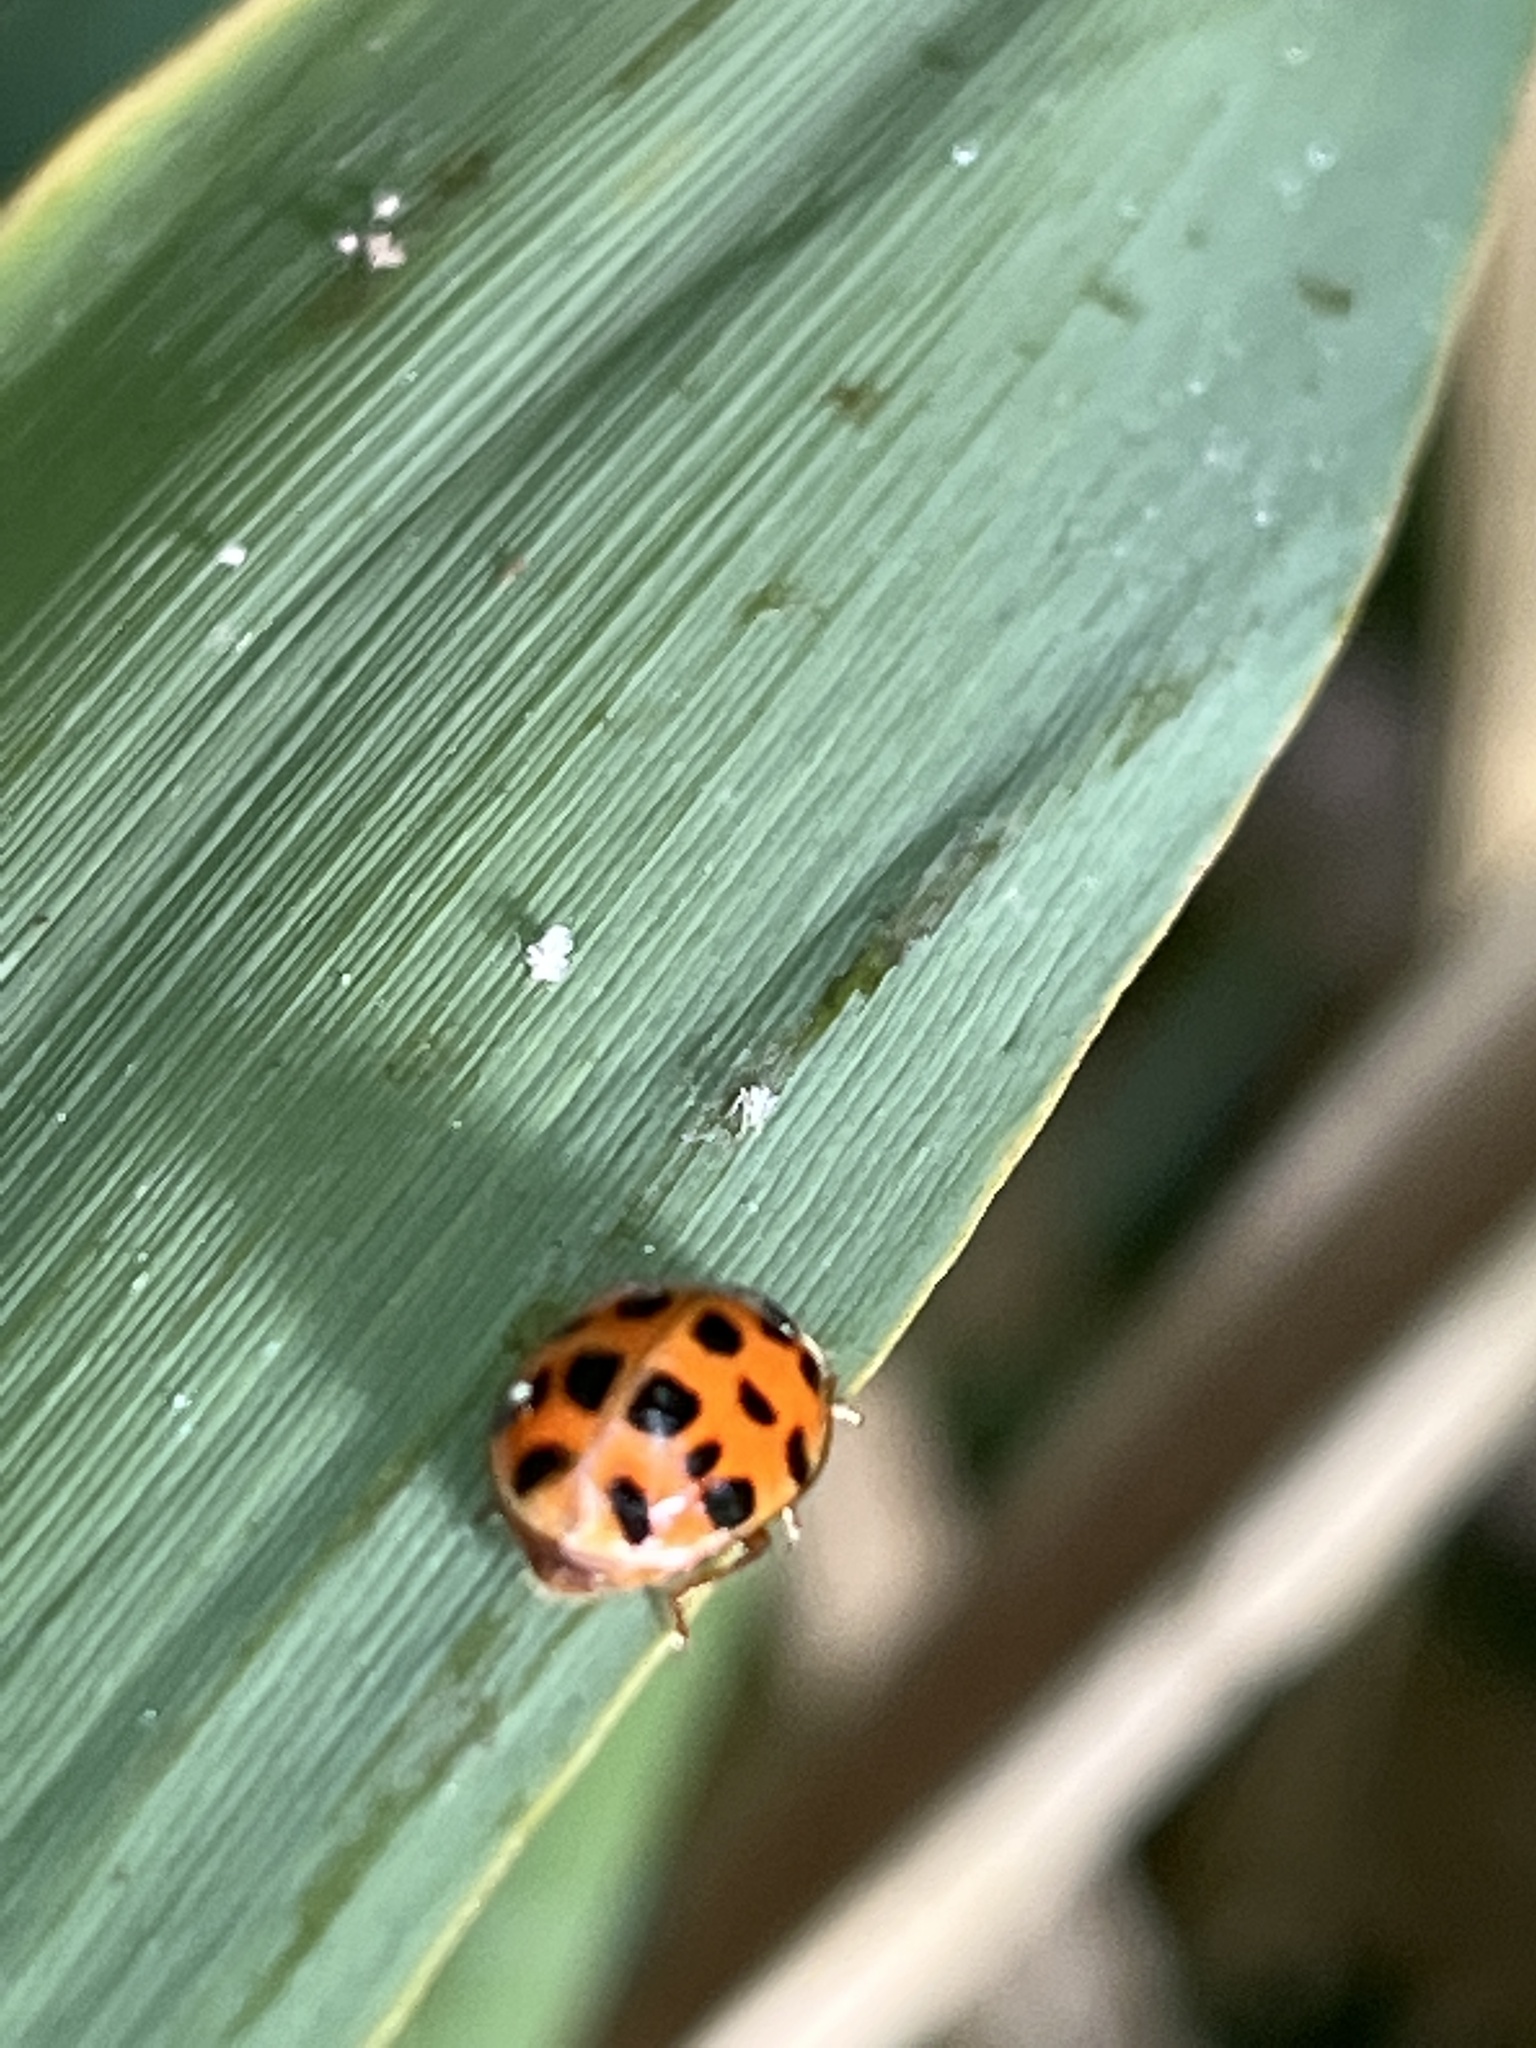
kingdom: Animalia
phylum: Arthropoda
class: Insecta
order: Coleoptera
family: Coccinellidae
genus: Harmonia
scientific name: Harmonia axyridis
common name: Harlequin ladybird
